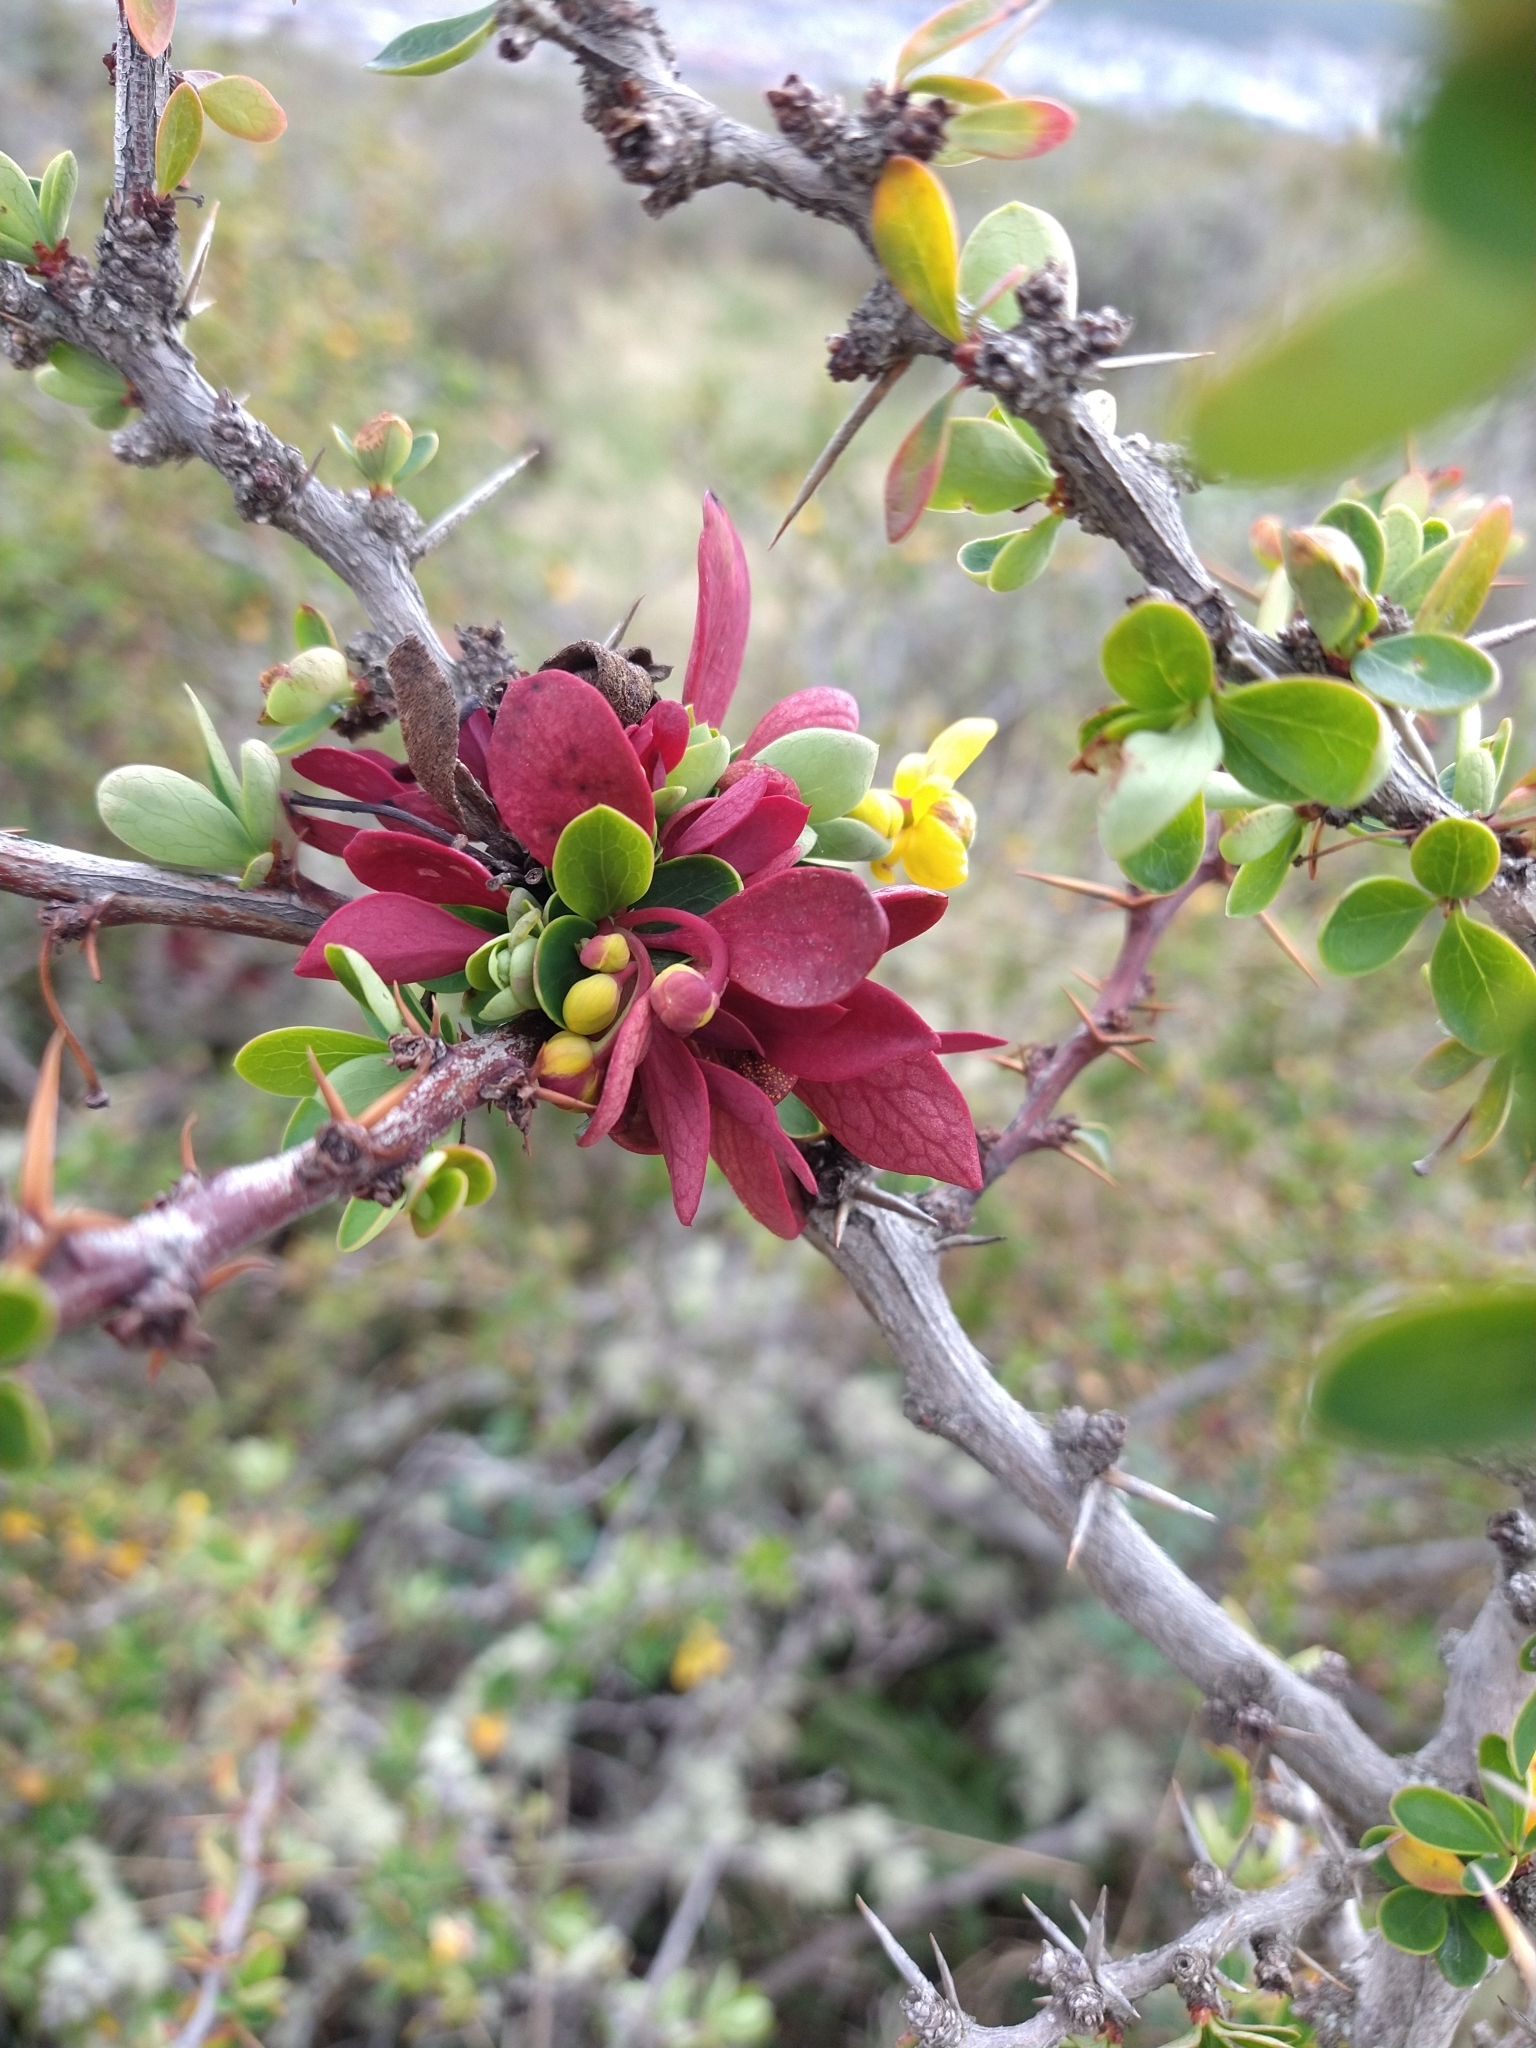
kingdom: Fungi
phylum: Basidiomycota
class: Pucciniomycetes
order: Pucciniales
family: Pucciniaceae
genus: Puccinia
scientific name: Puccinia magellanica
